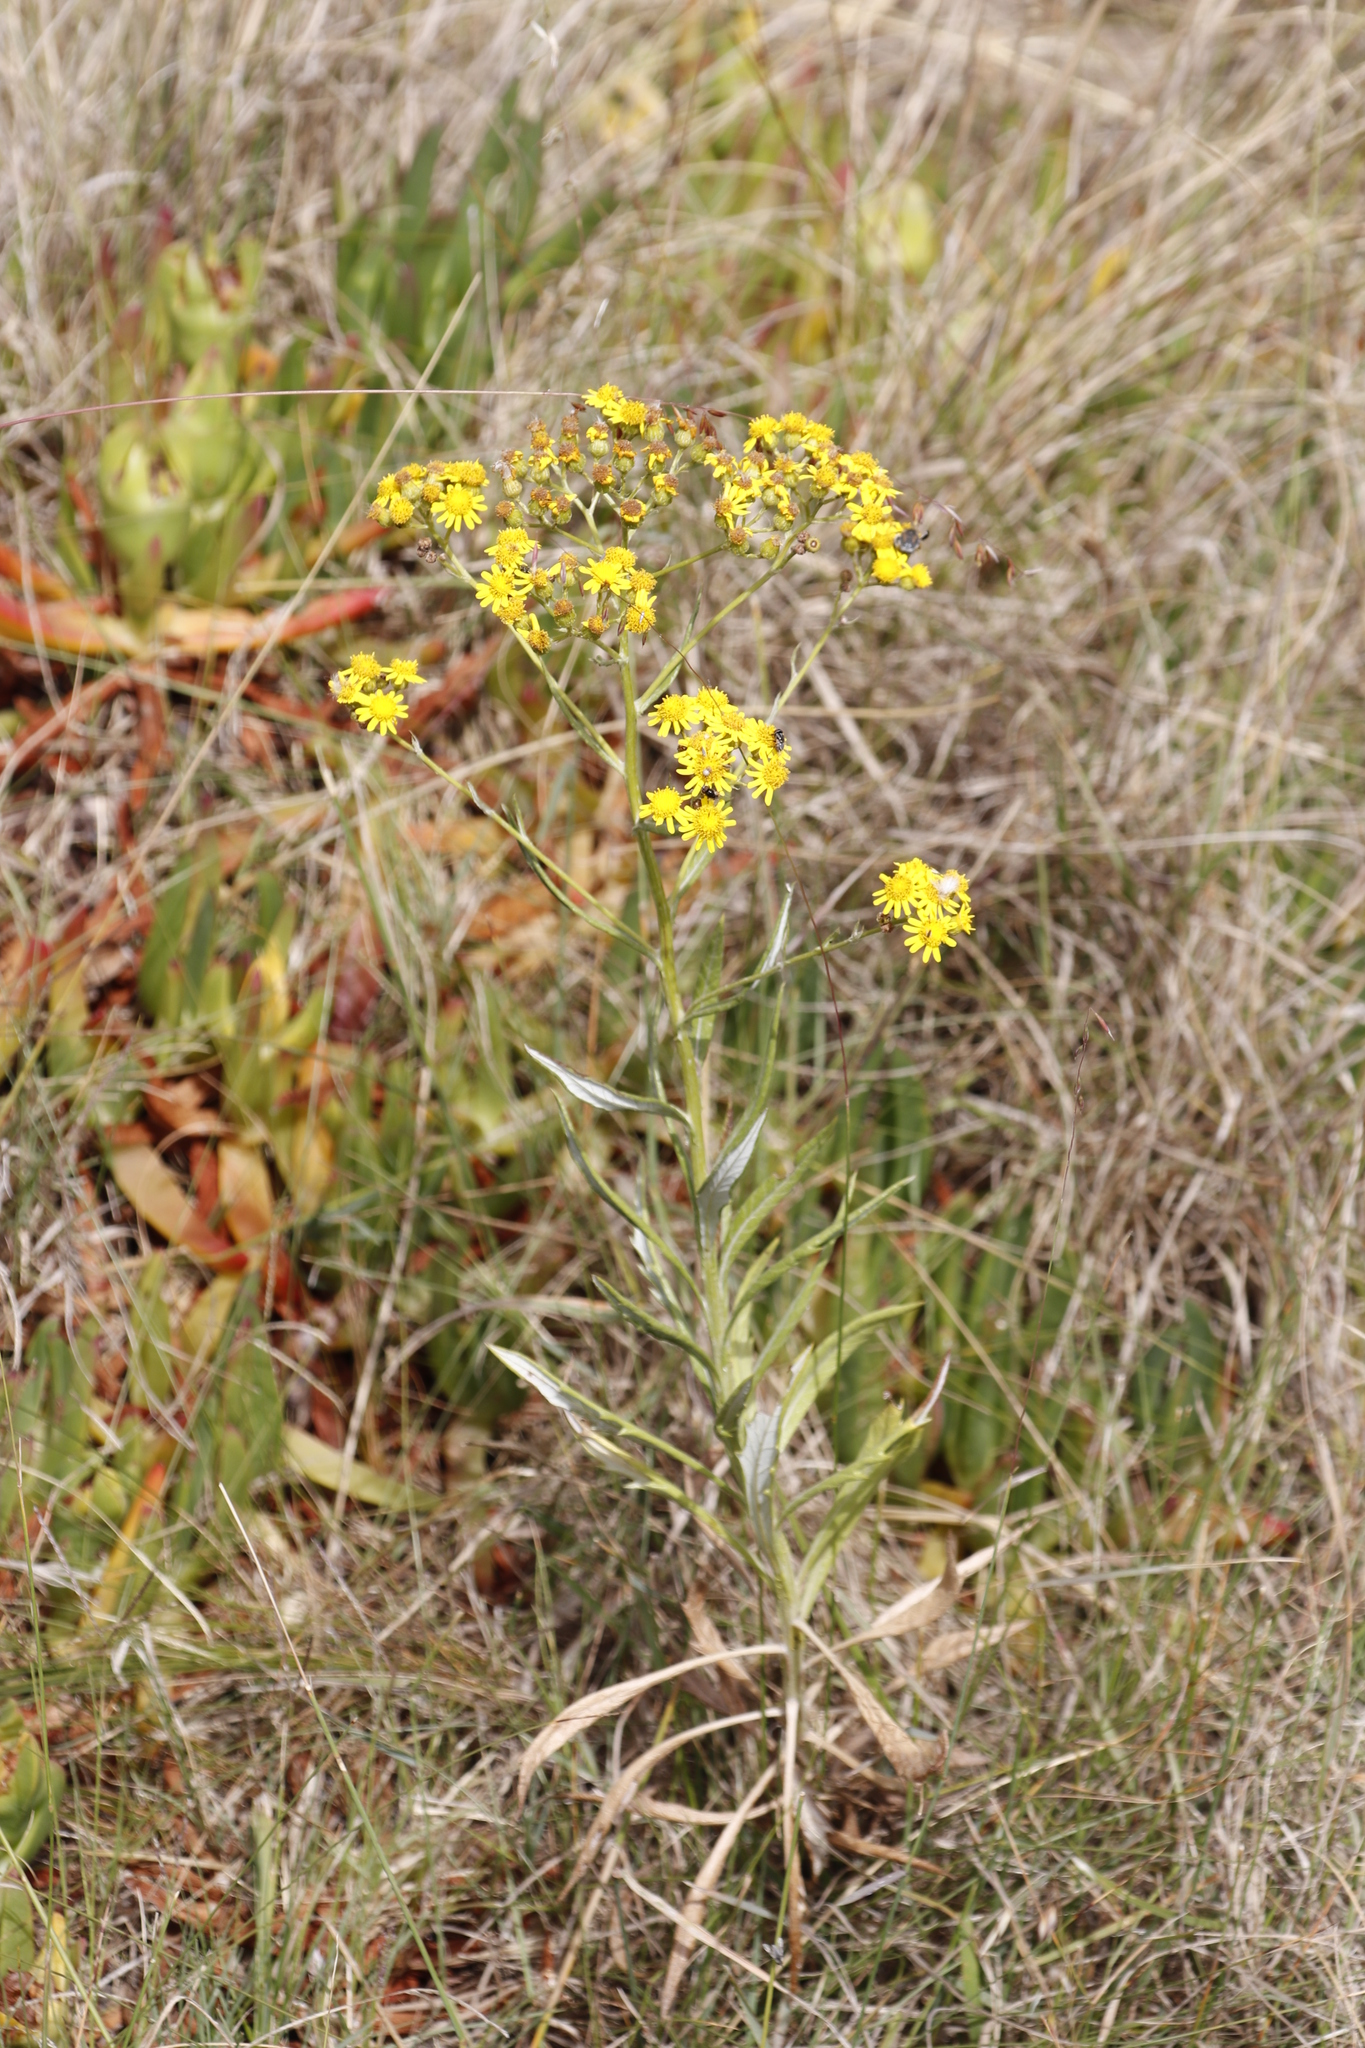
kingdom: Plantae
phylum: Tracheophyta
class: Magnoliopsida
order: Asterales
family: Asteraceae
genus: Senecio
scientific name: Senecio pterophorus
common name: Shoddy ragwort
